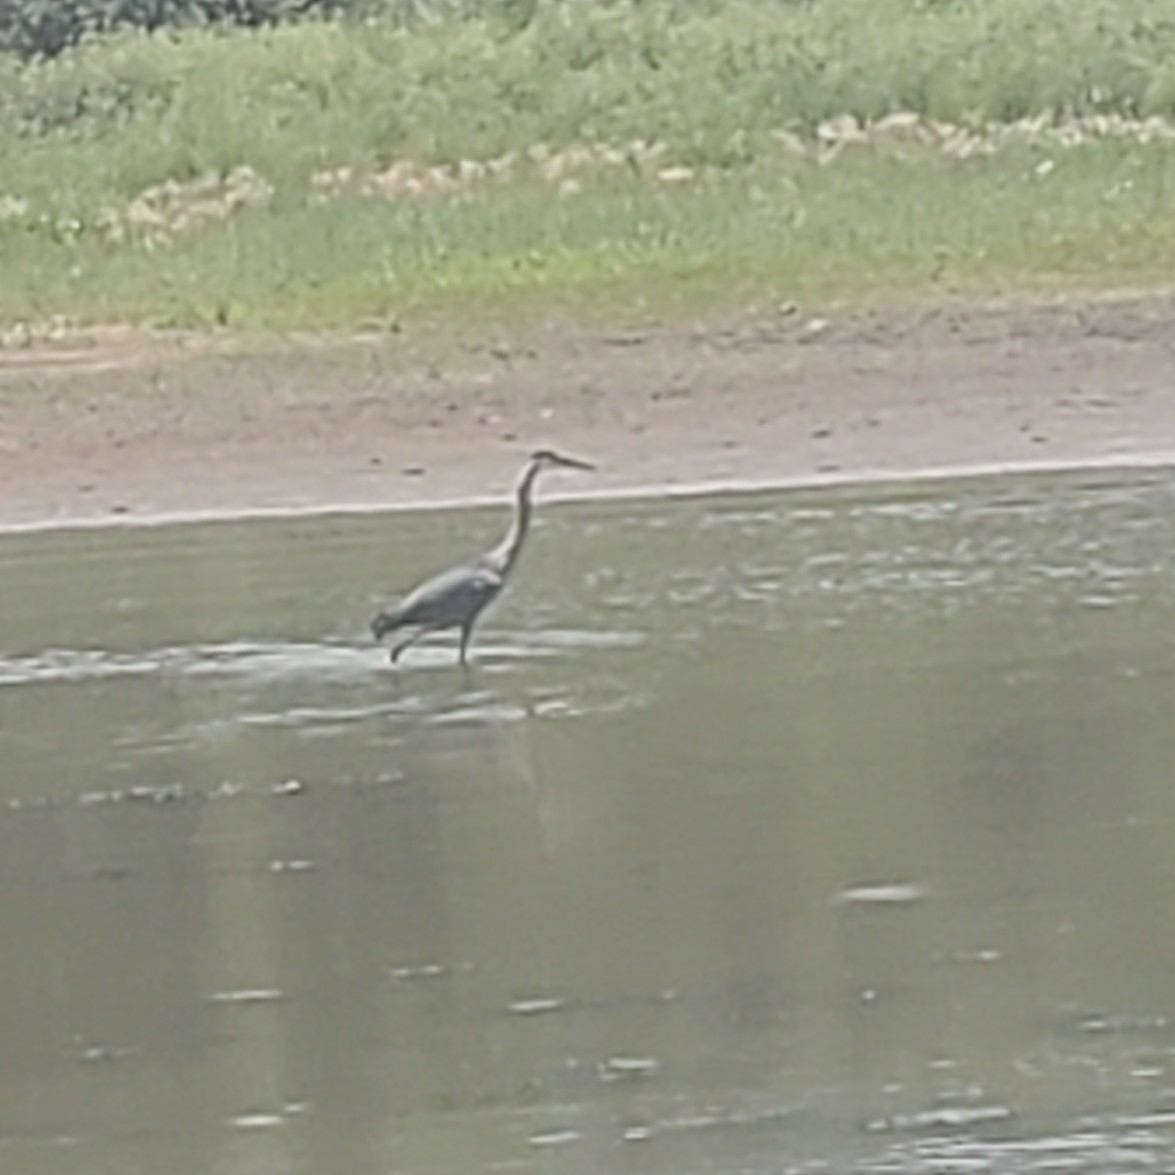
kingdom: Animalia
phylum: Chordata
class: Aves
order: Pelecaniformes
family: Ardeidae
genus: Ardea
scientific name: Ardea herodias
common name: Great blue heron
